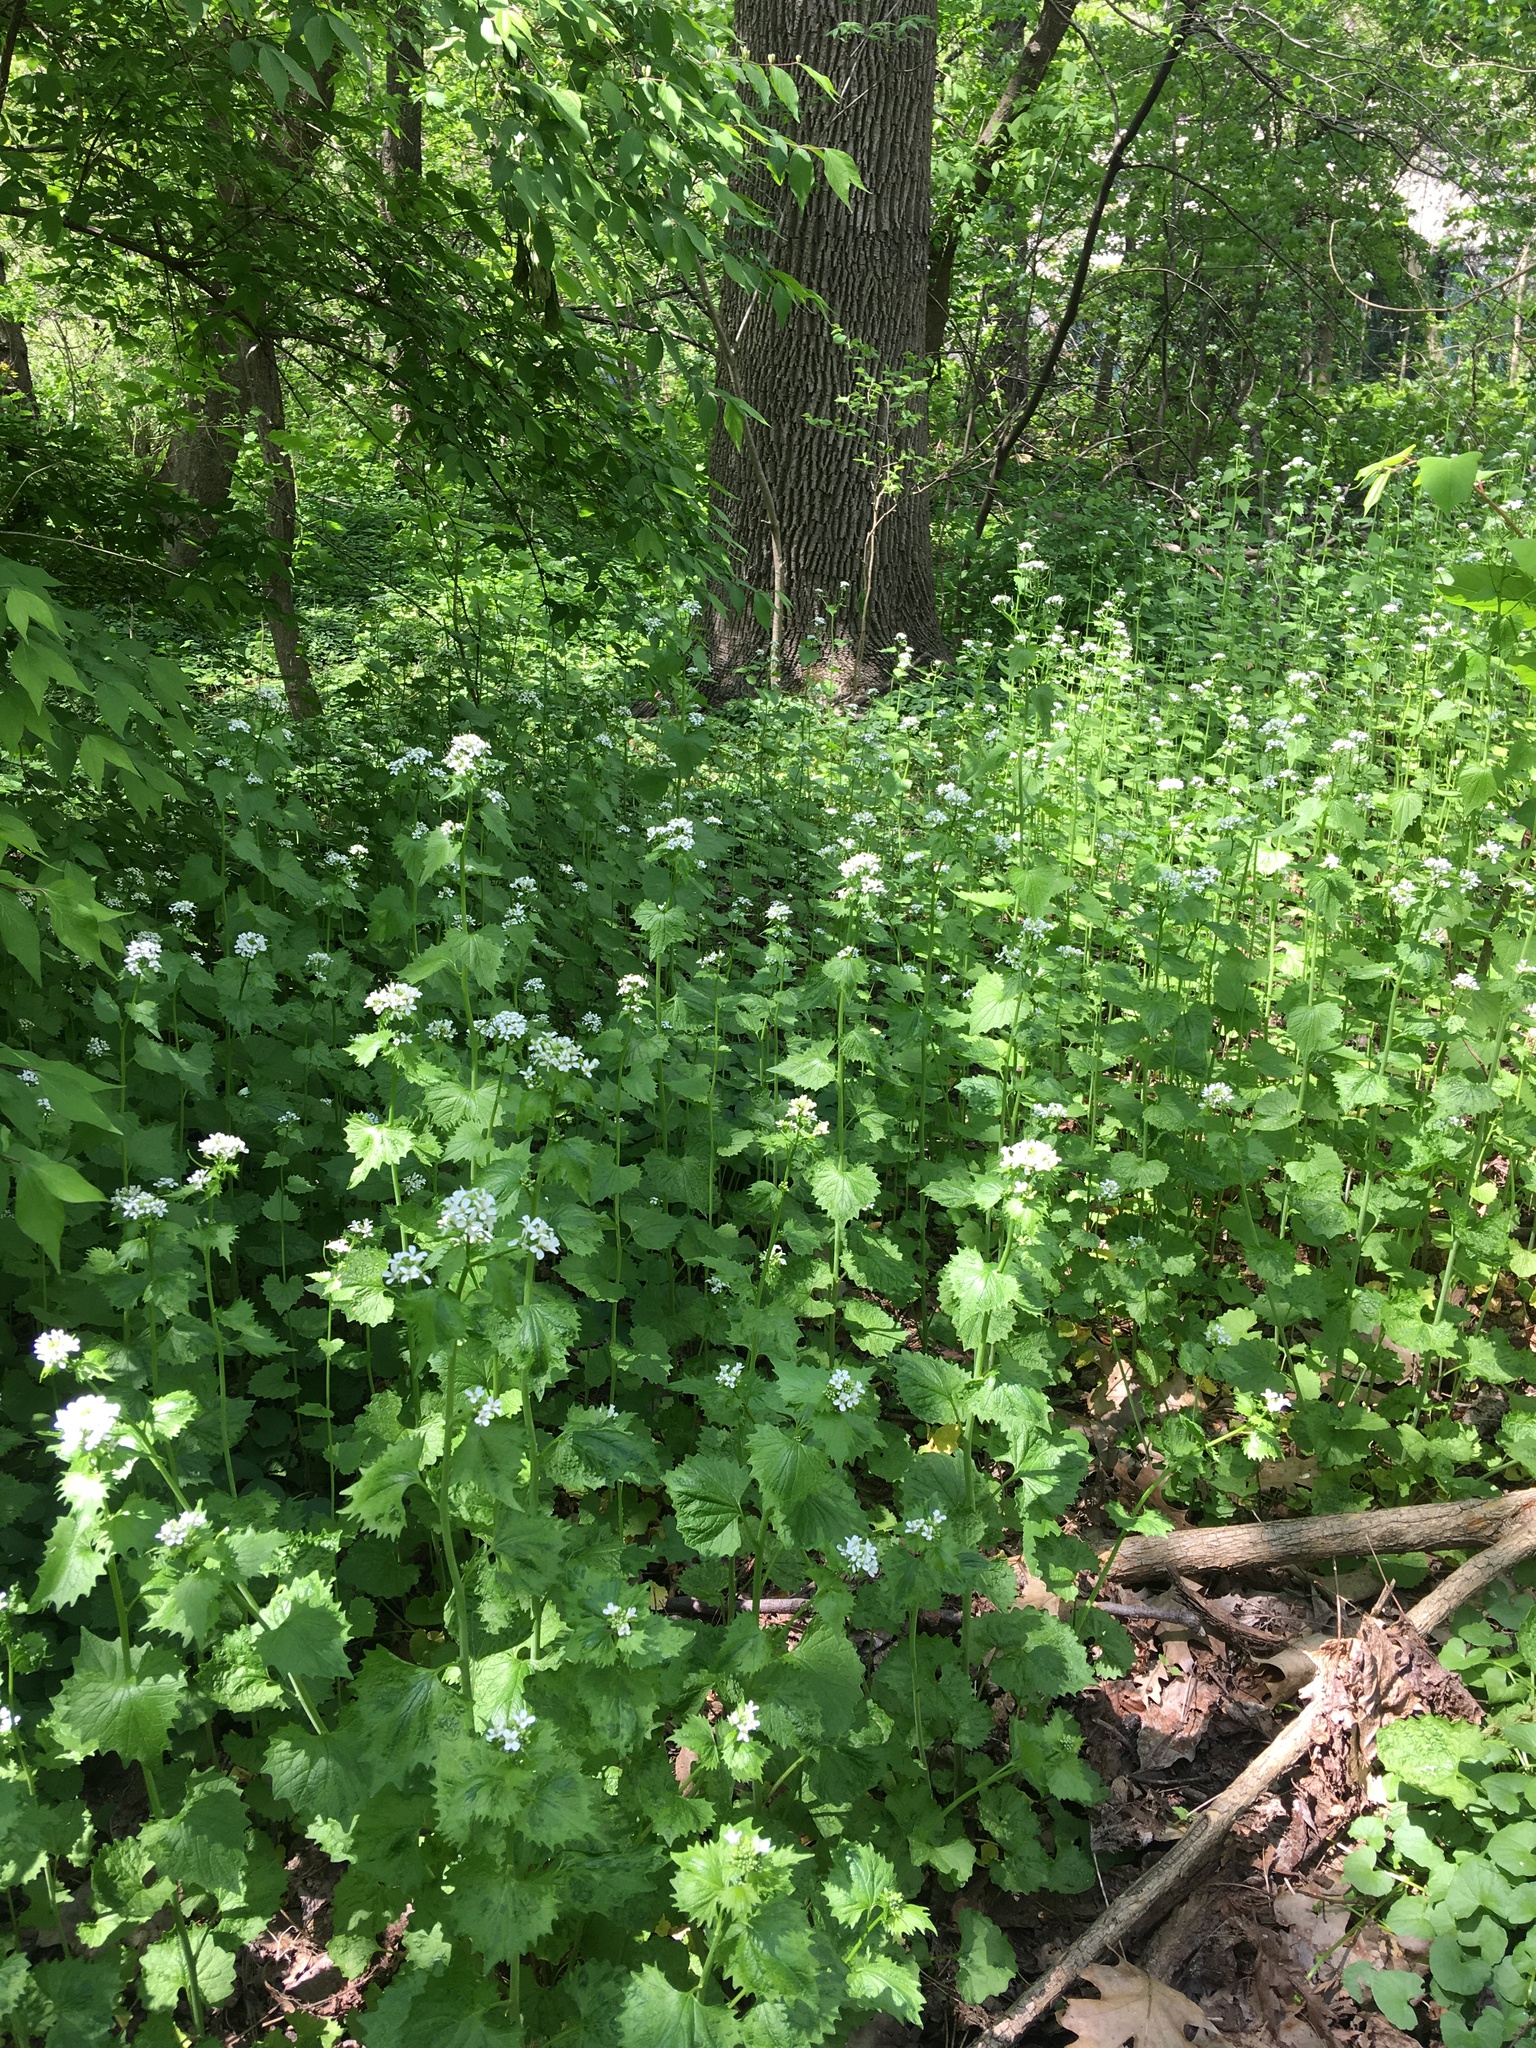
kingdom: Plantae
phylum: Tracheophyta
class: Magnoliopsida
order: Brassicales
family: Brassicaceae
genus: Alliaria
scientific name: Alliaria petiolata
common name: Garlic mustard
